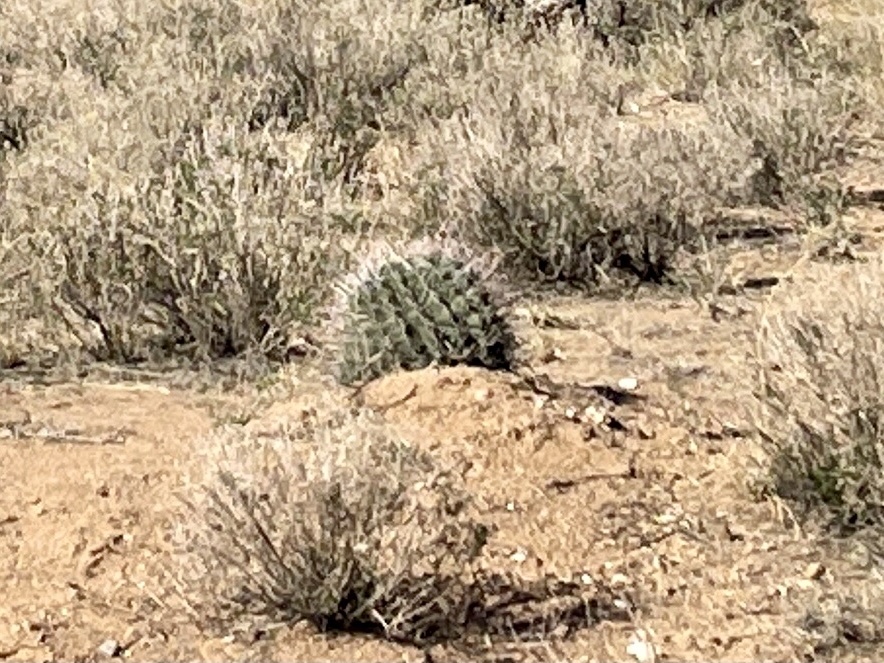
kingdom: Plantae
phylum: Tracheophyta
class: Magnoliopsida
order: Caryophyllales
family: Cactaceae
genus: Ferocactus
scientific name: Ferocactus wislizeni
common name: Candy barrel cactus
